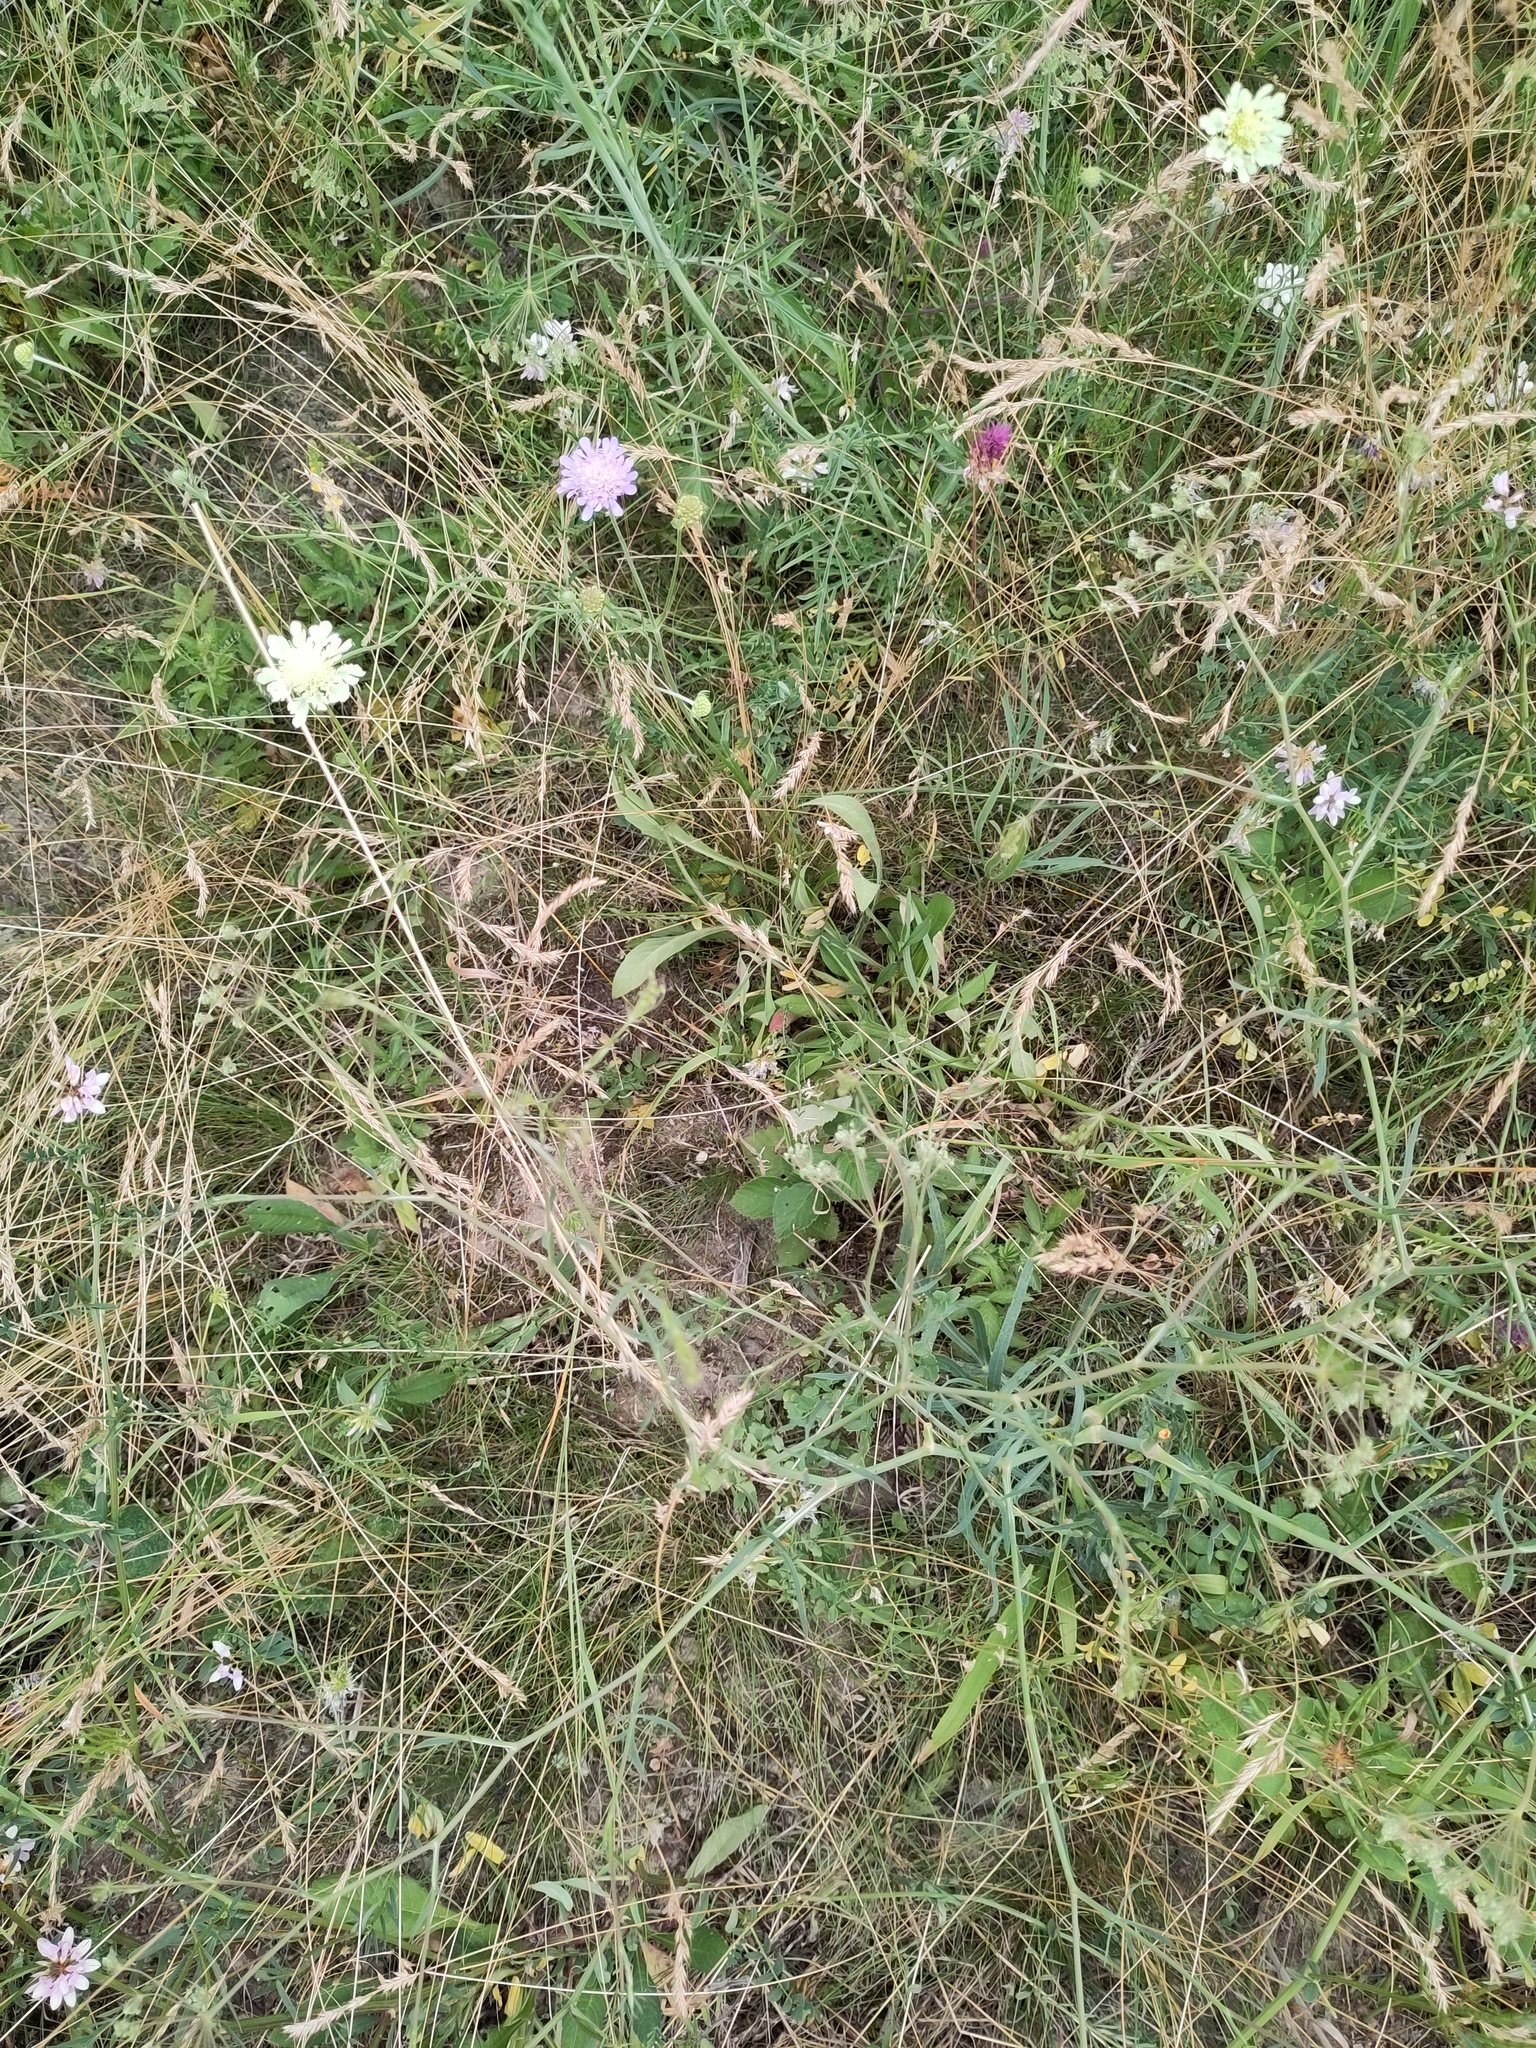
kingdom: Plantae
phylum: Tracheophyta
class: Magnoliopsida
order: Apiales
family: Apiaceae
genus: Falcaria
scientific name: Falcaria vulgaris
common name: Longleaf
